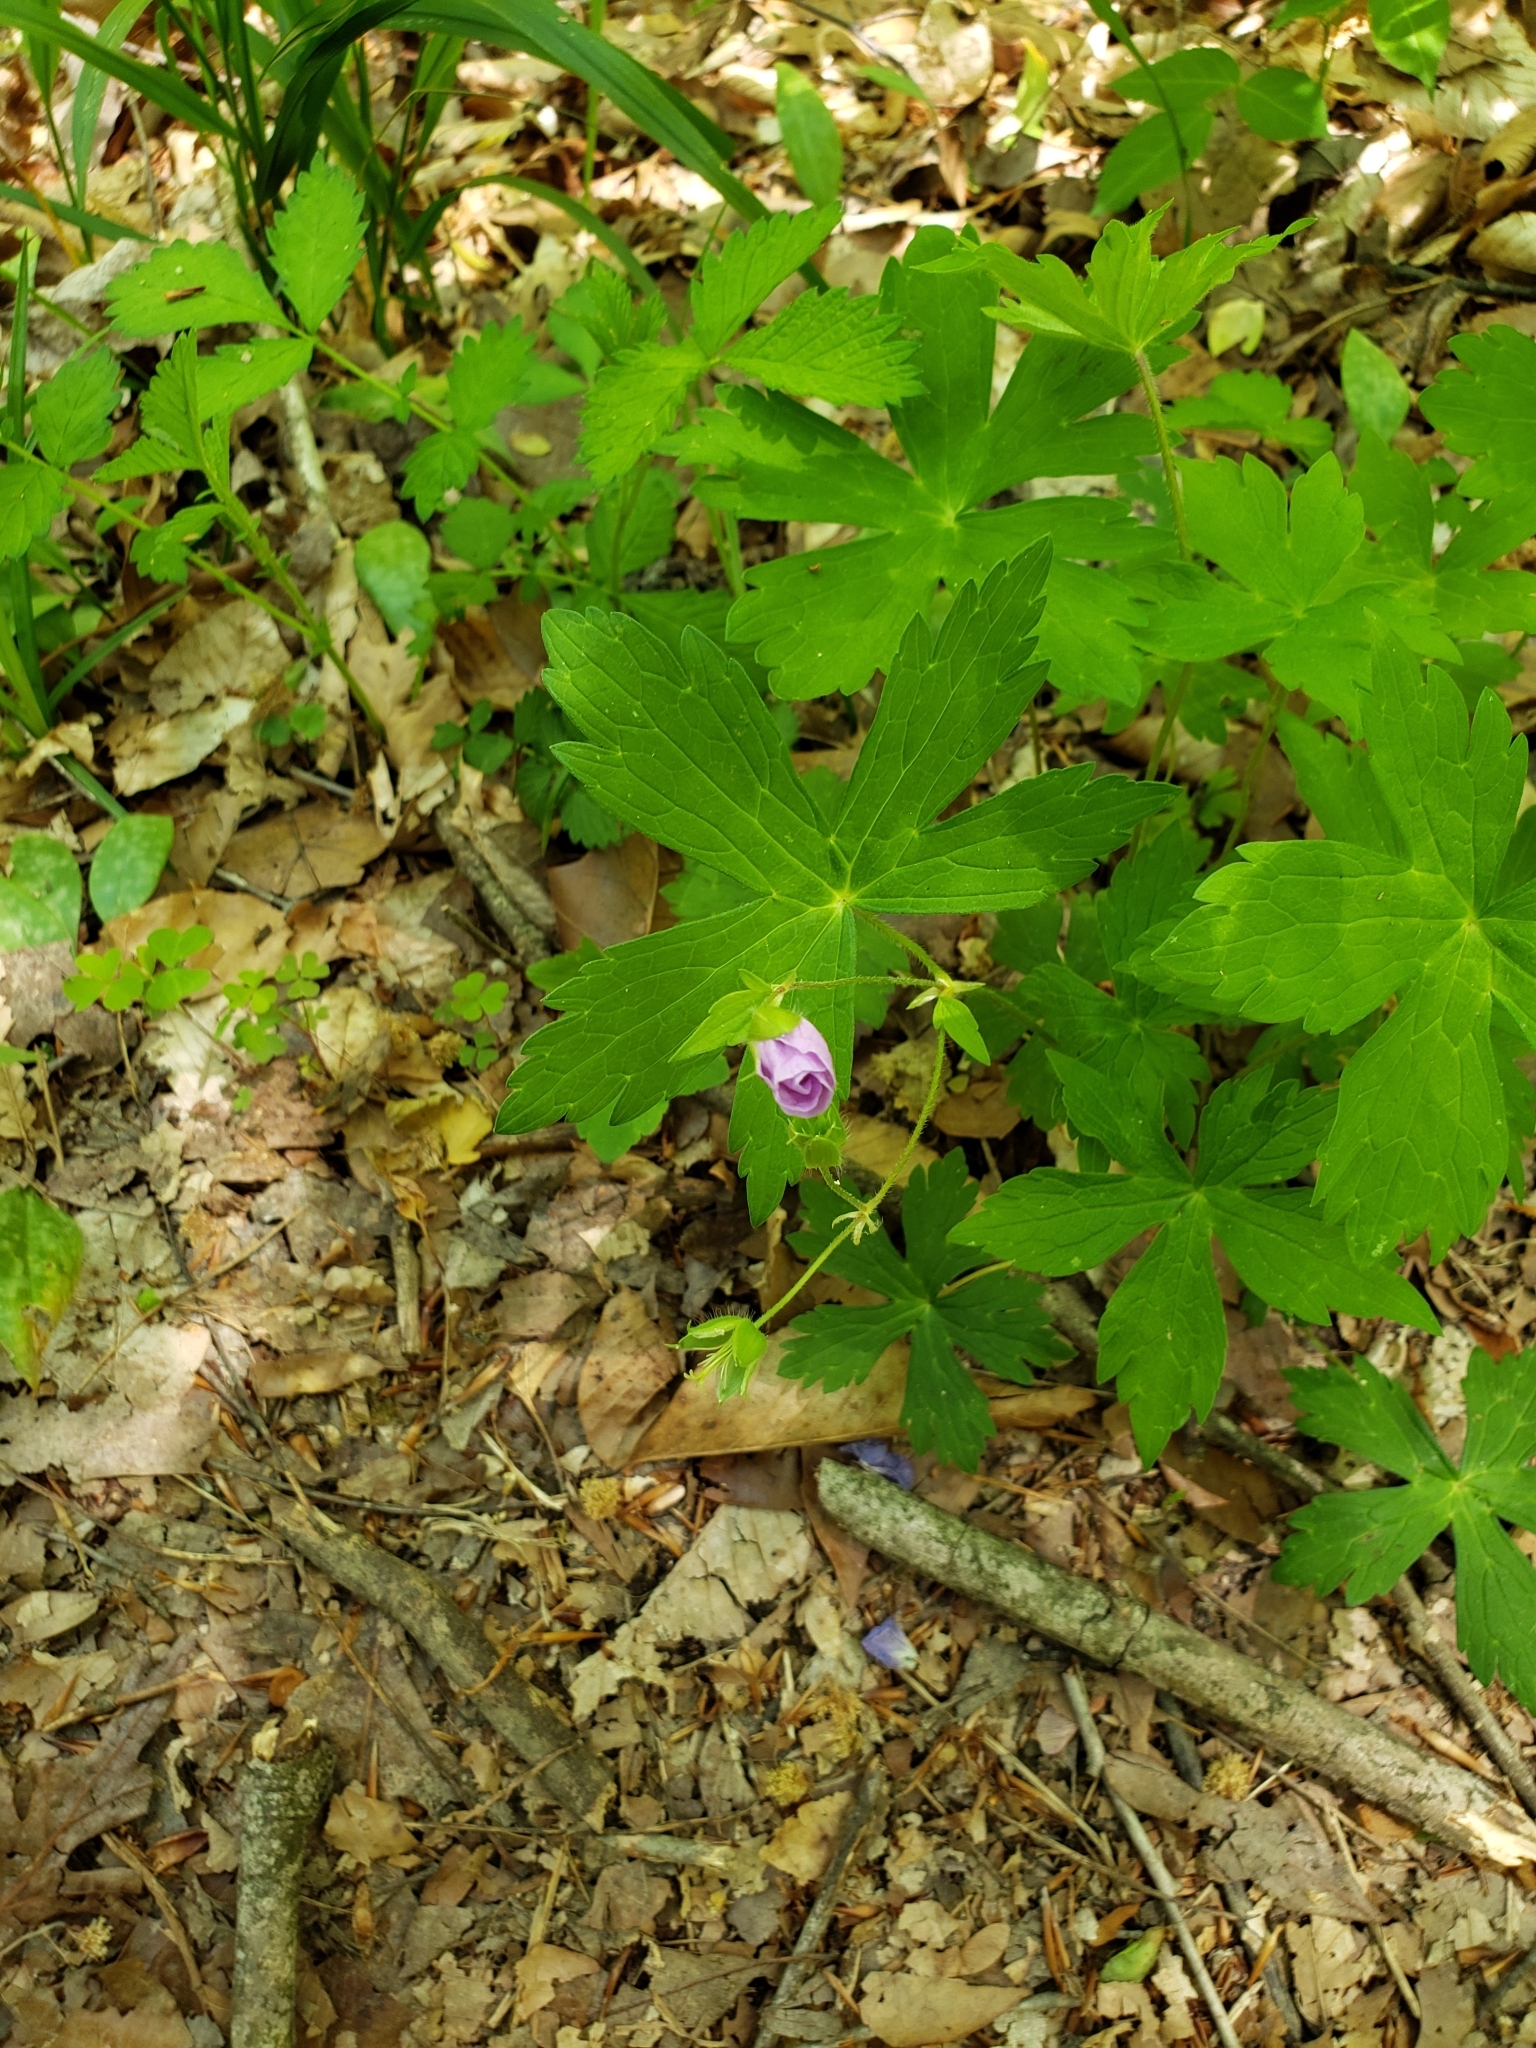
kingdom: Plantae
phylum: Tracheophyta
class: Magnoliopsida
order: Geraniales
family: Geraniaceae
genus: Geranium
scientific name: Geranium maculatum
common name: Spotted geranium
